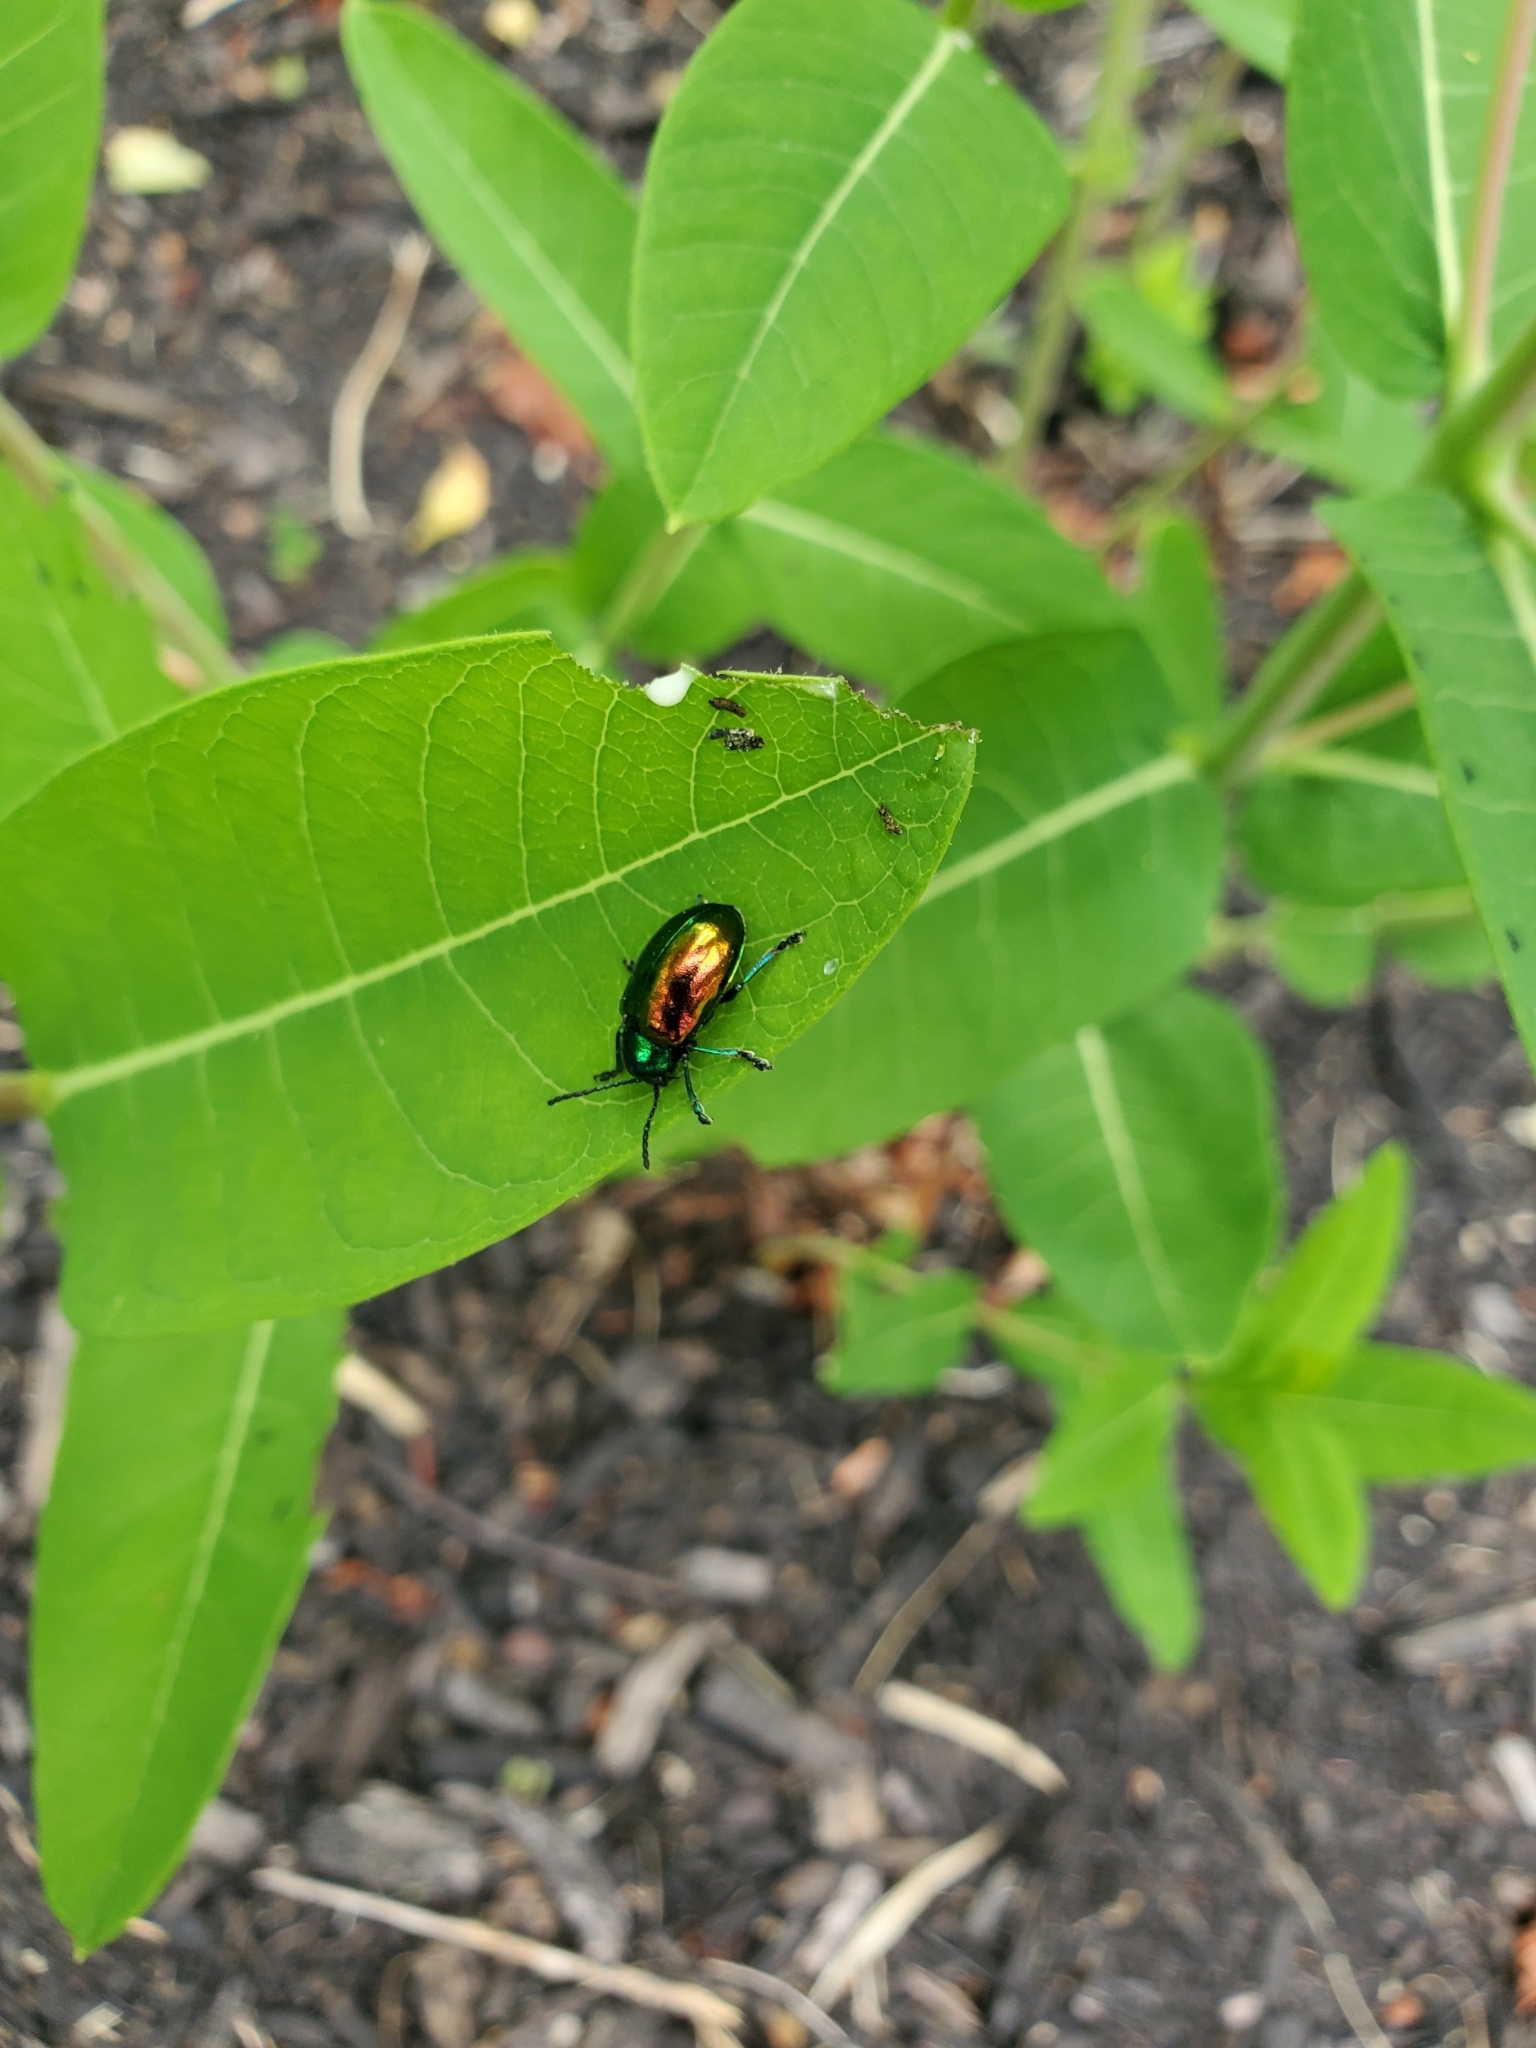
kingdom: Animalia
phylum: Arthropoda
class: Insecta
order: Coleoptera
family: Chrysomelidae
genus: Chrysochus
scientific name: Chrysochus auratus
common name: Dogbane leaf beetle
